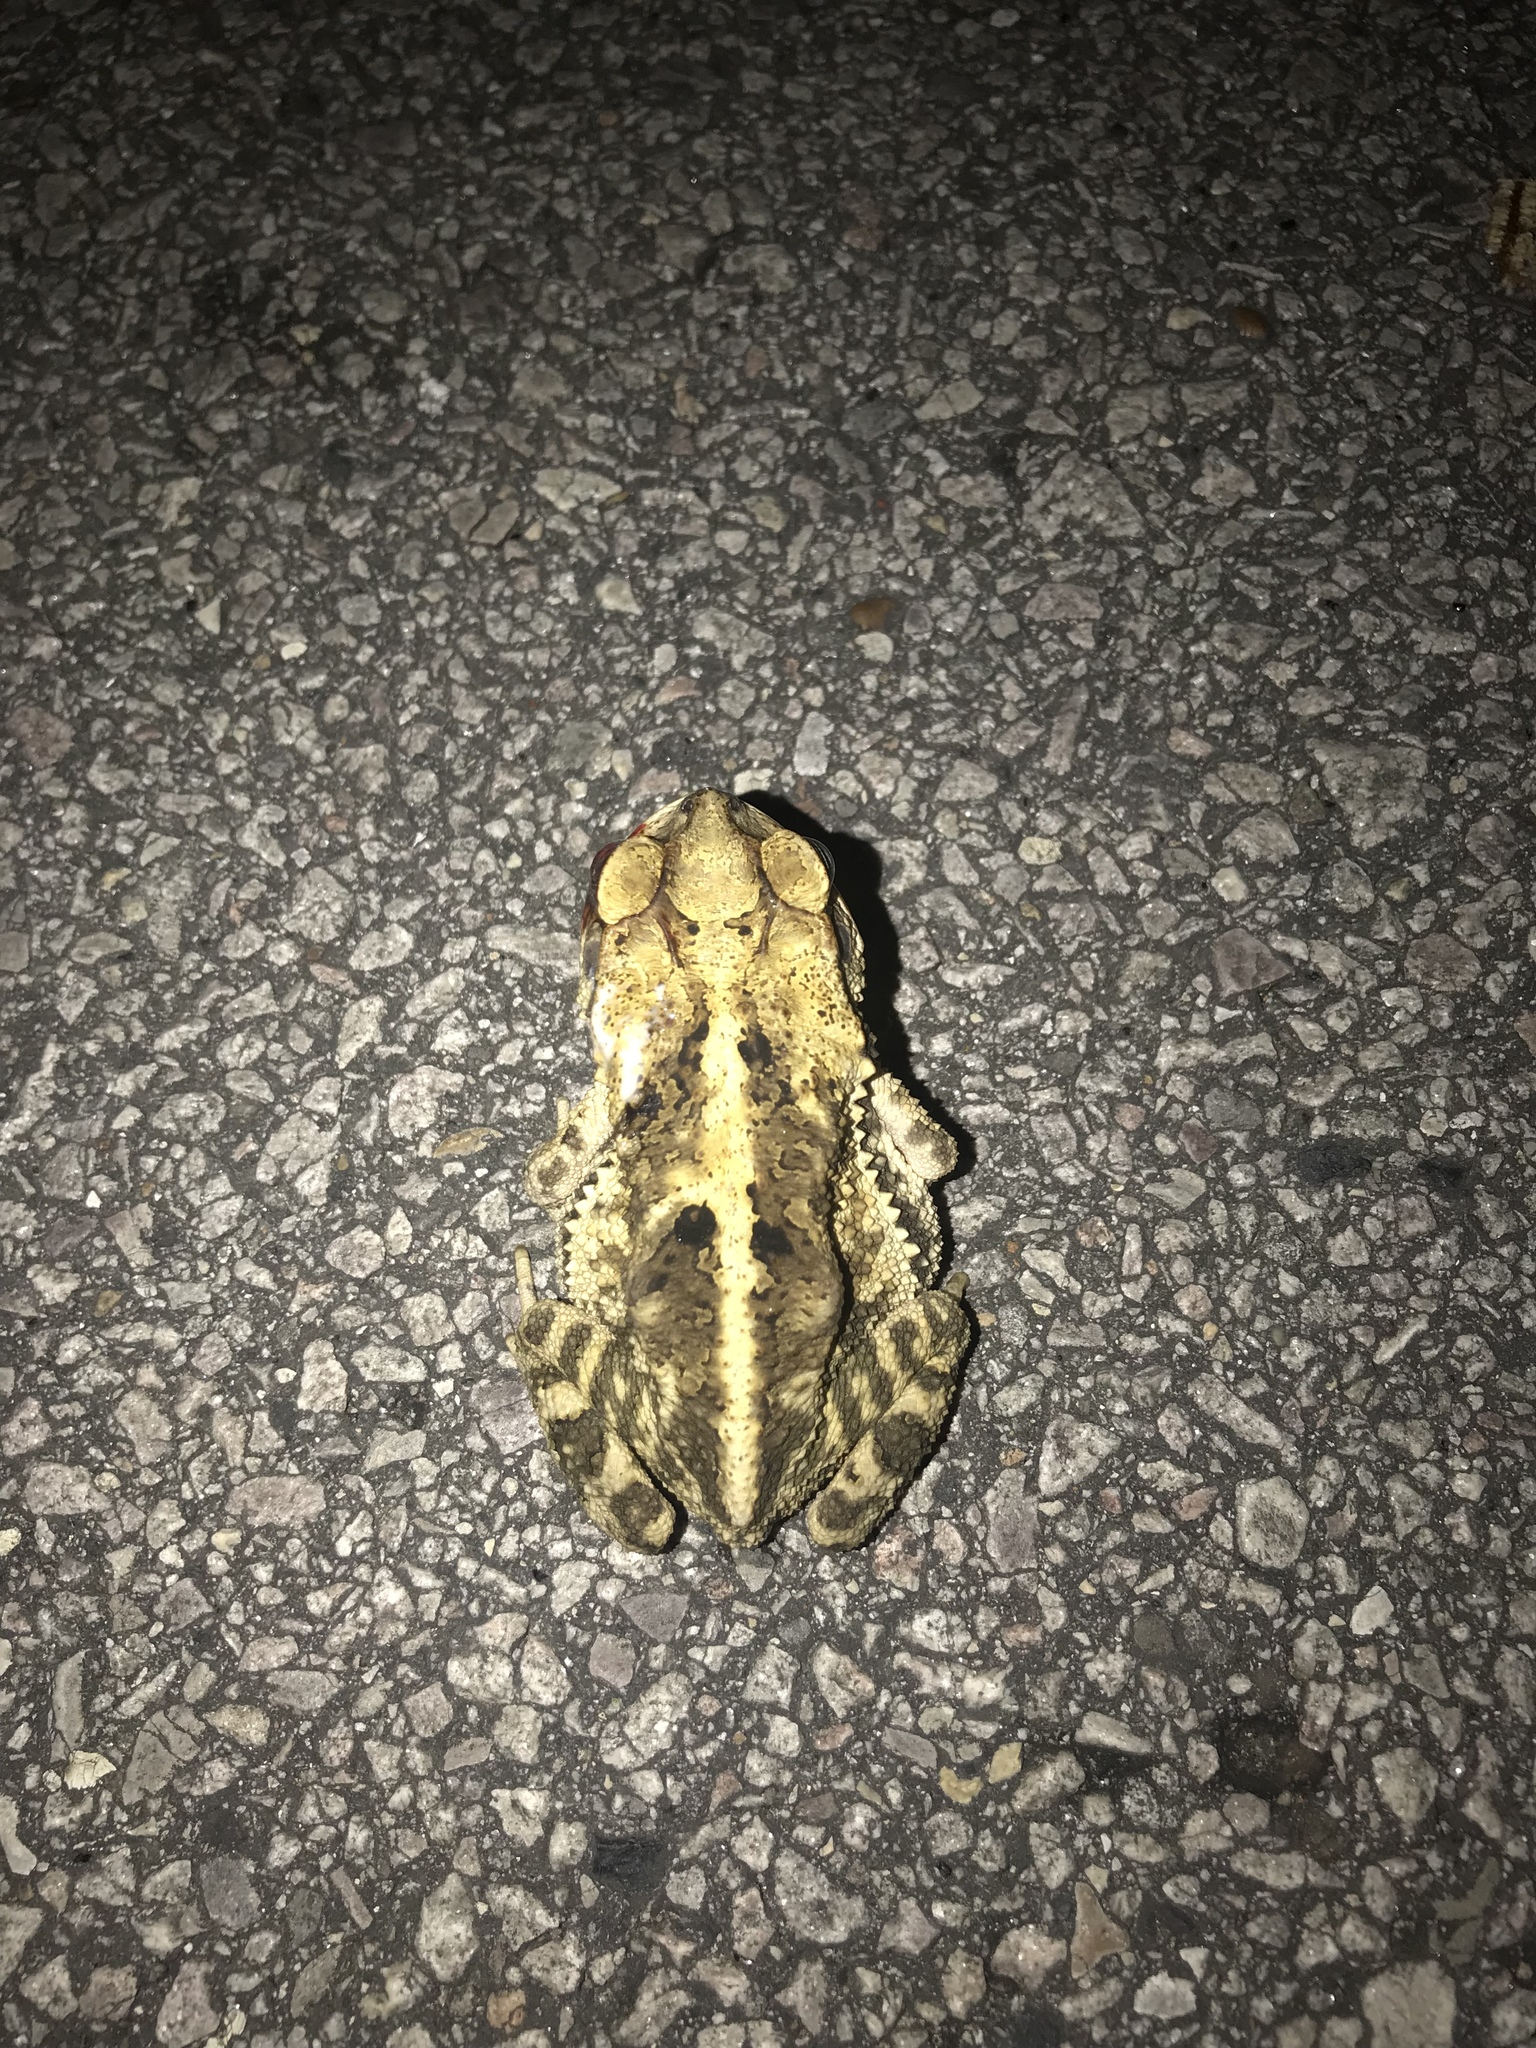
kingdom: Animalia
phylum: Chordata
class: Amphibia
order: Anura
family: Bufonidae
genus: Incilius
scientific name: Incilius nebulifer
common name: Gulf coast toad
